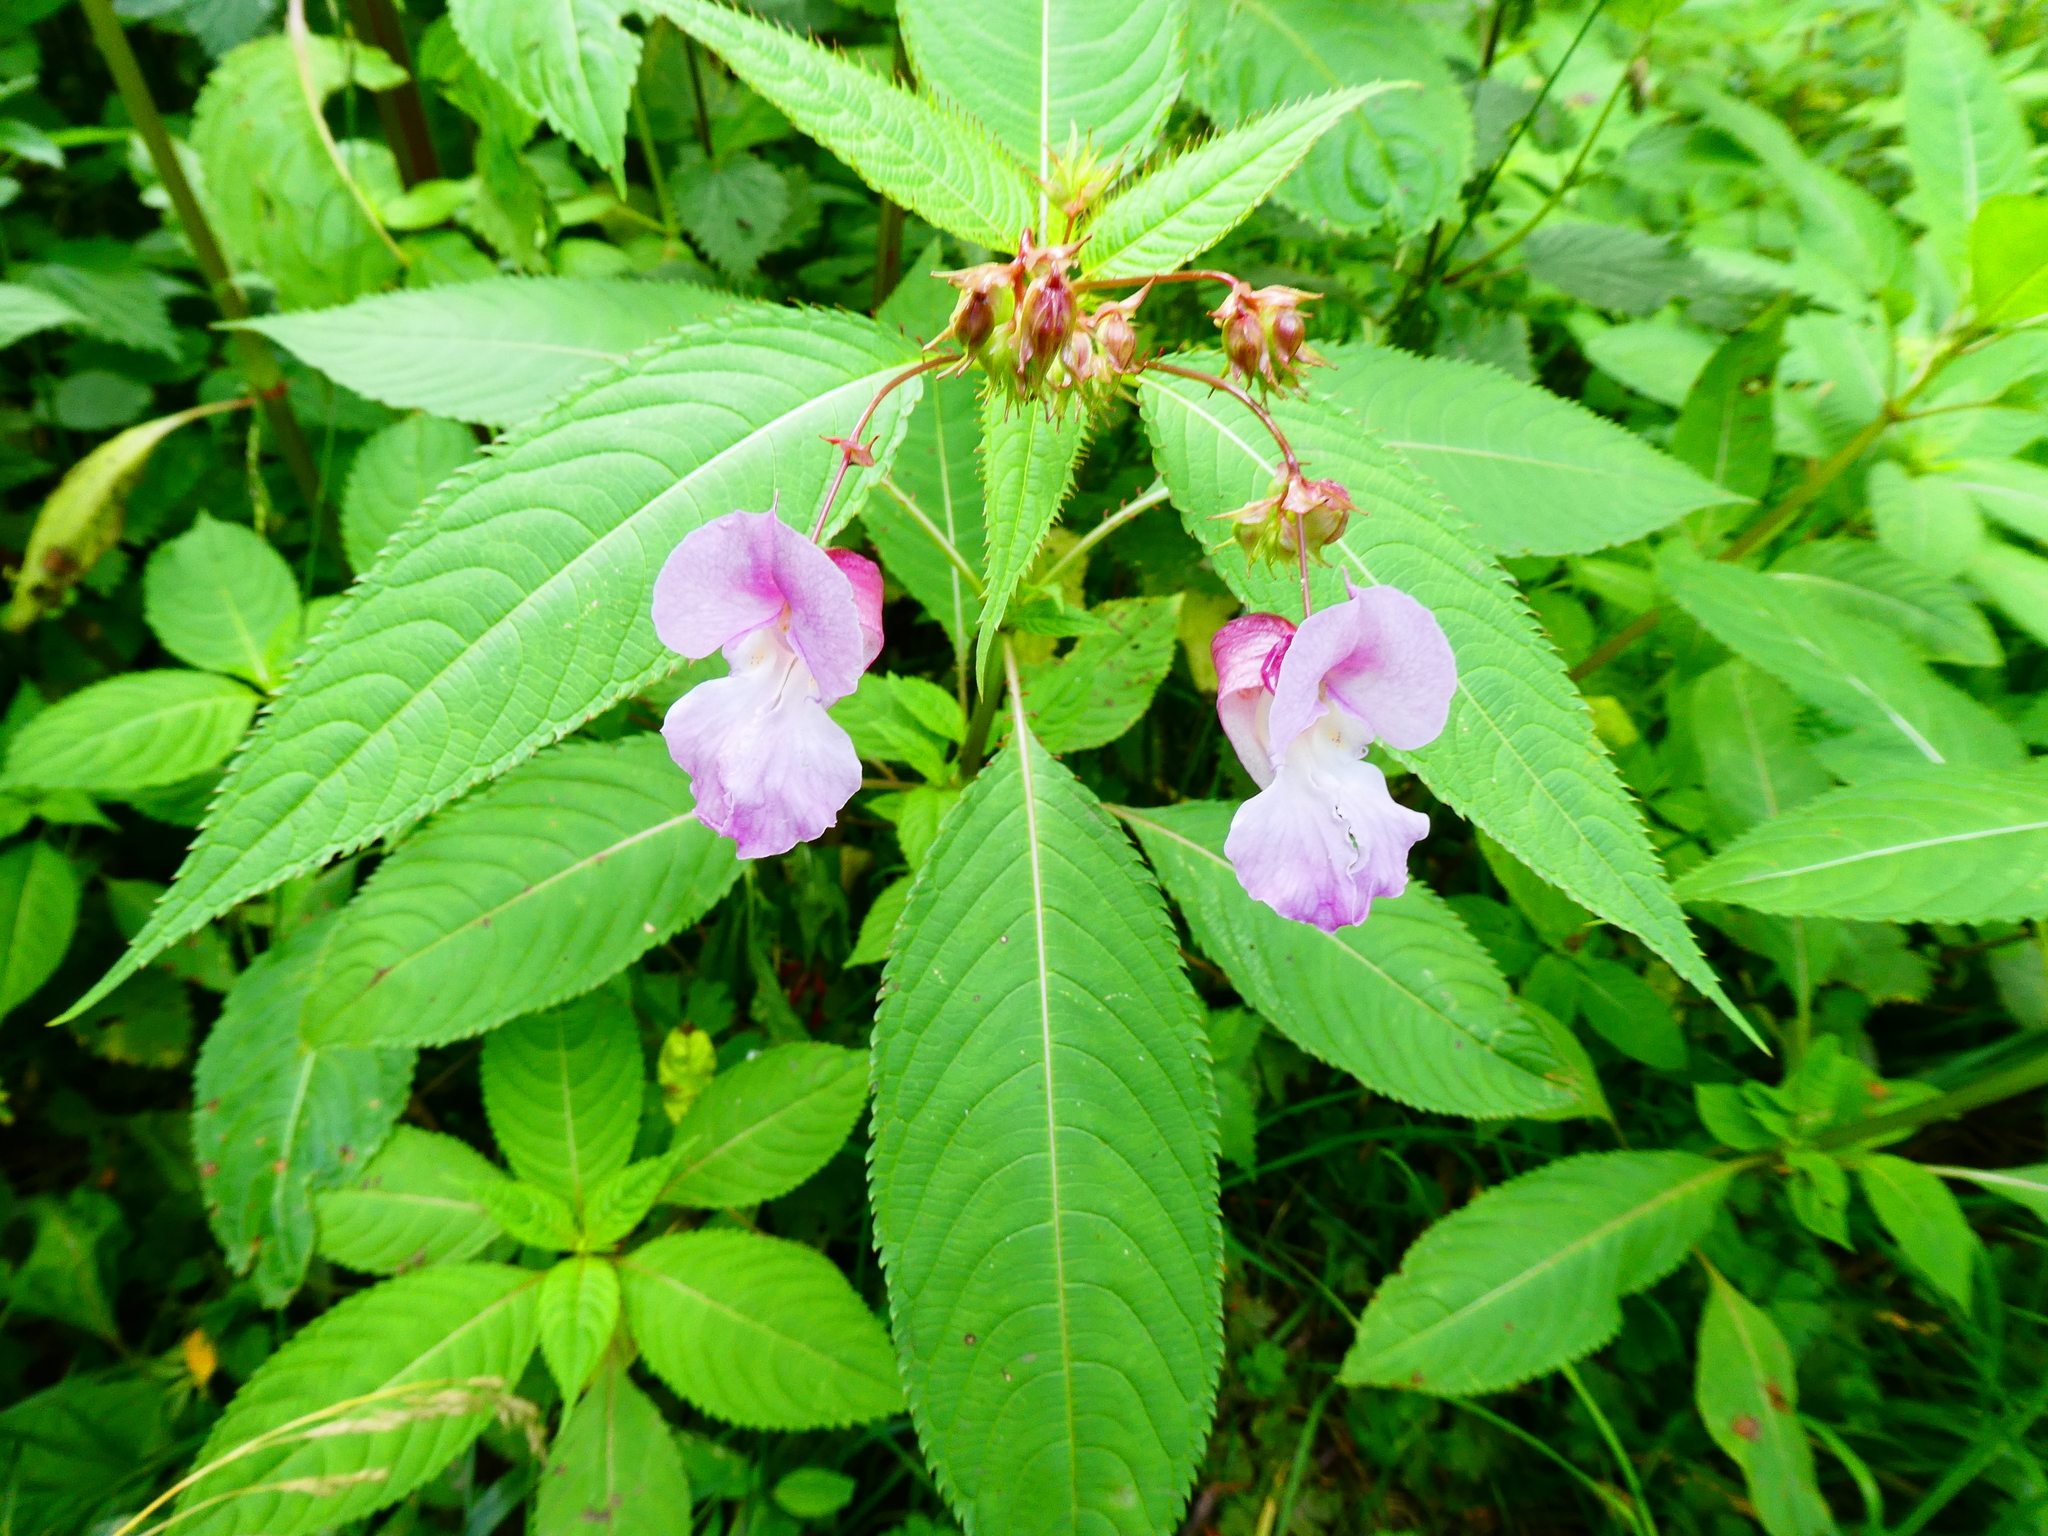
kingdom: Plantae
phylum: Tracheophyta
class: Magnoliopsida
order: Ericales
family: Balsaminaceae
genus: Impatiens
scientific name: Impatiens glandulifera
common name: Himalayan balsam
